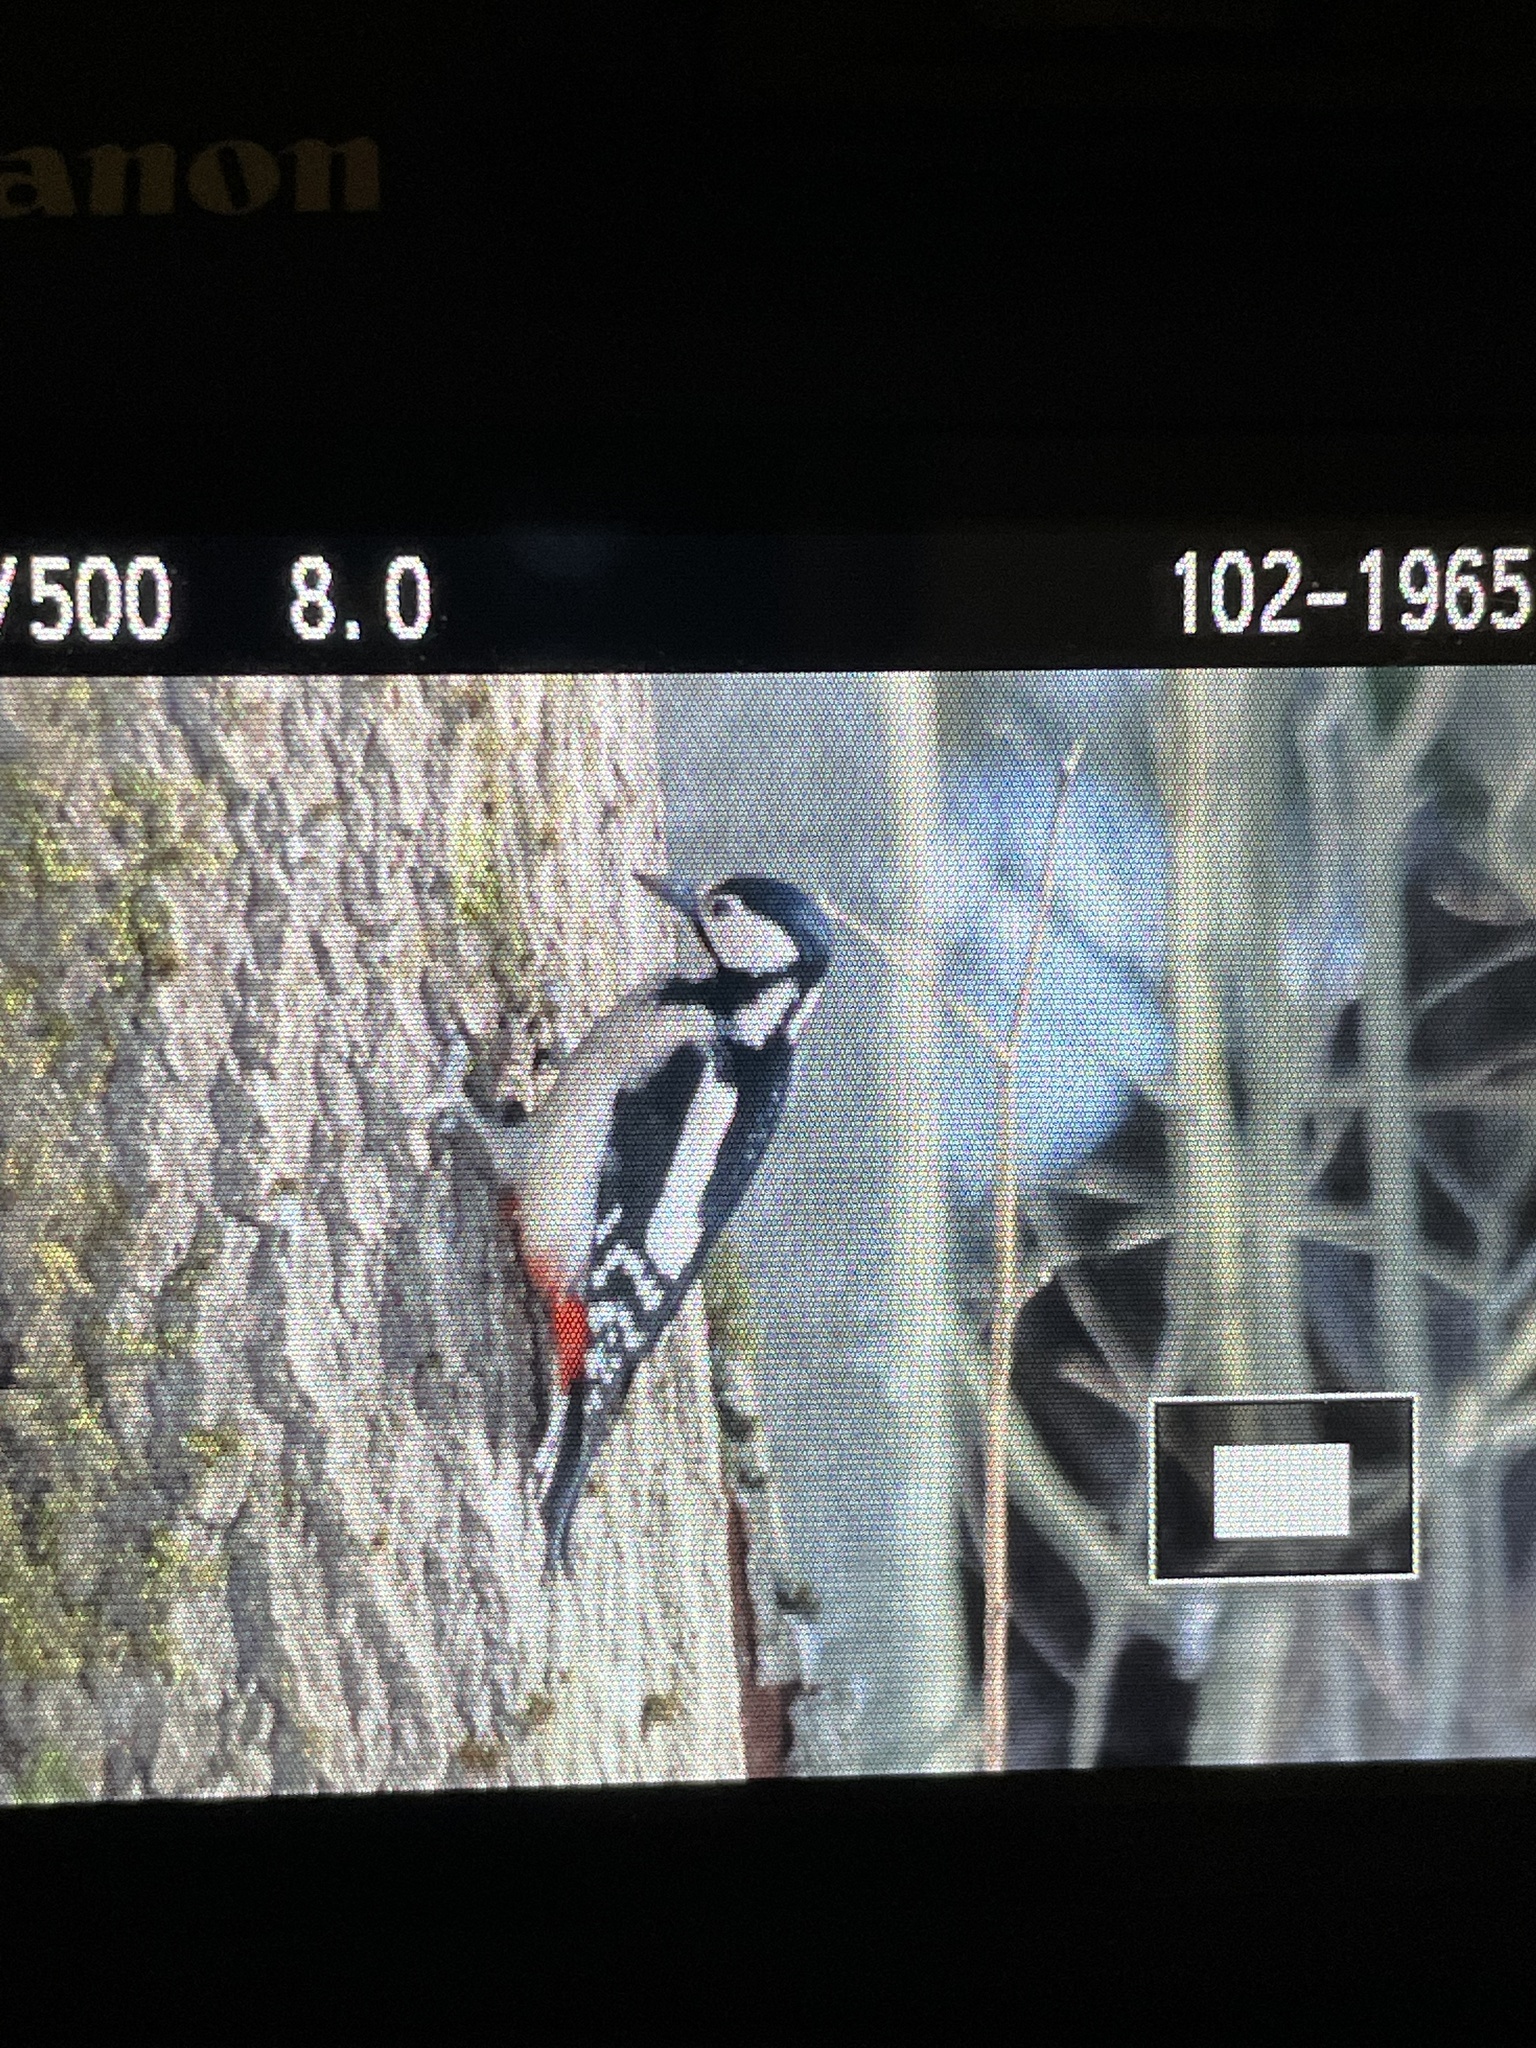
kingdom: Animalia
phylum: Chordata
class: Aves
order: Piciformes
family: Picidae
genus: Dendrocopos
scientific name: Dendrocopos major
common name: Great spotted woodpecker
